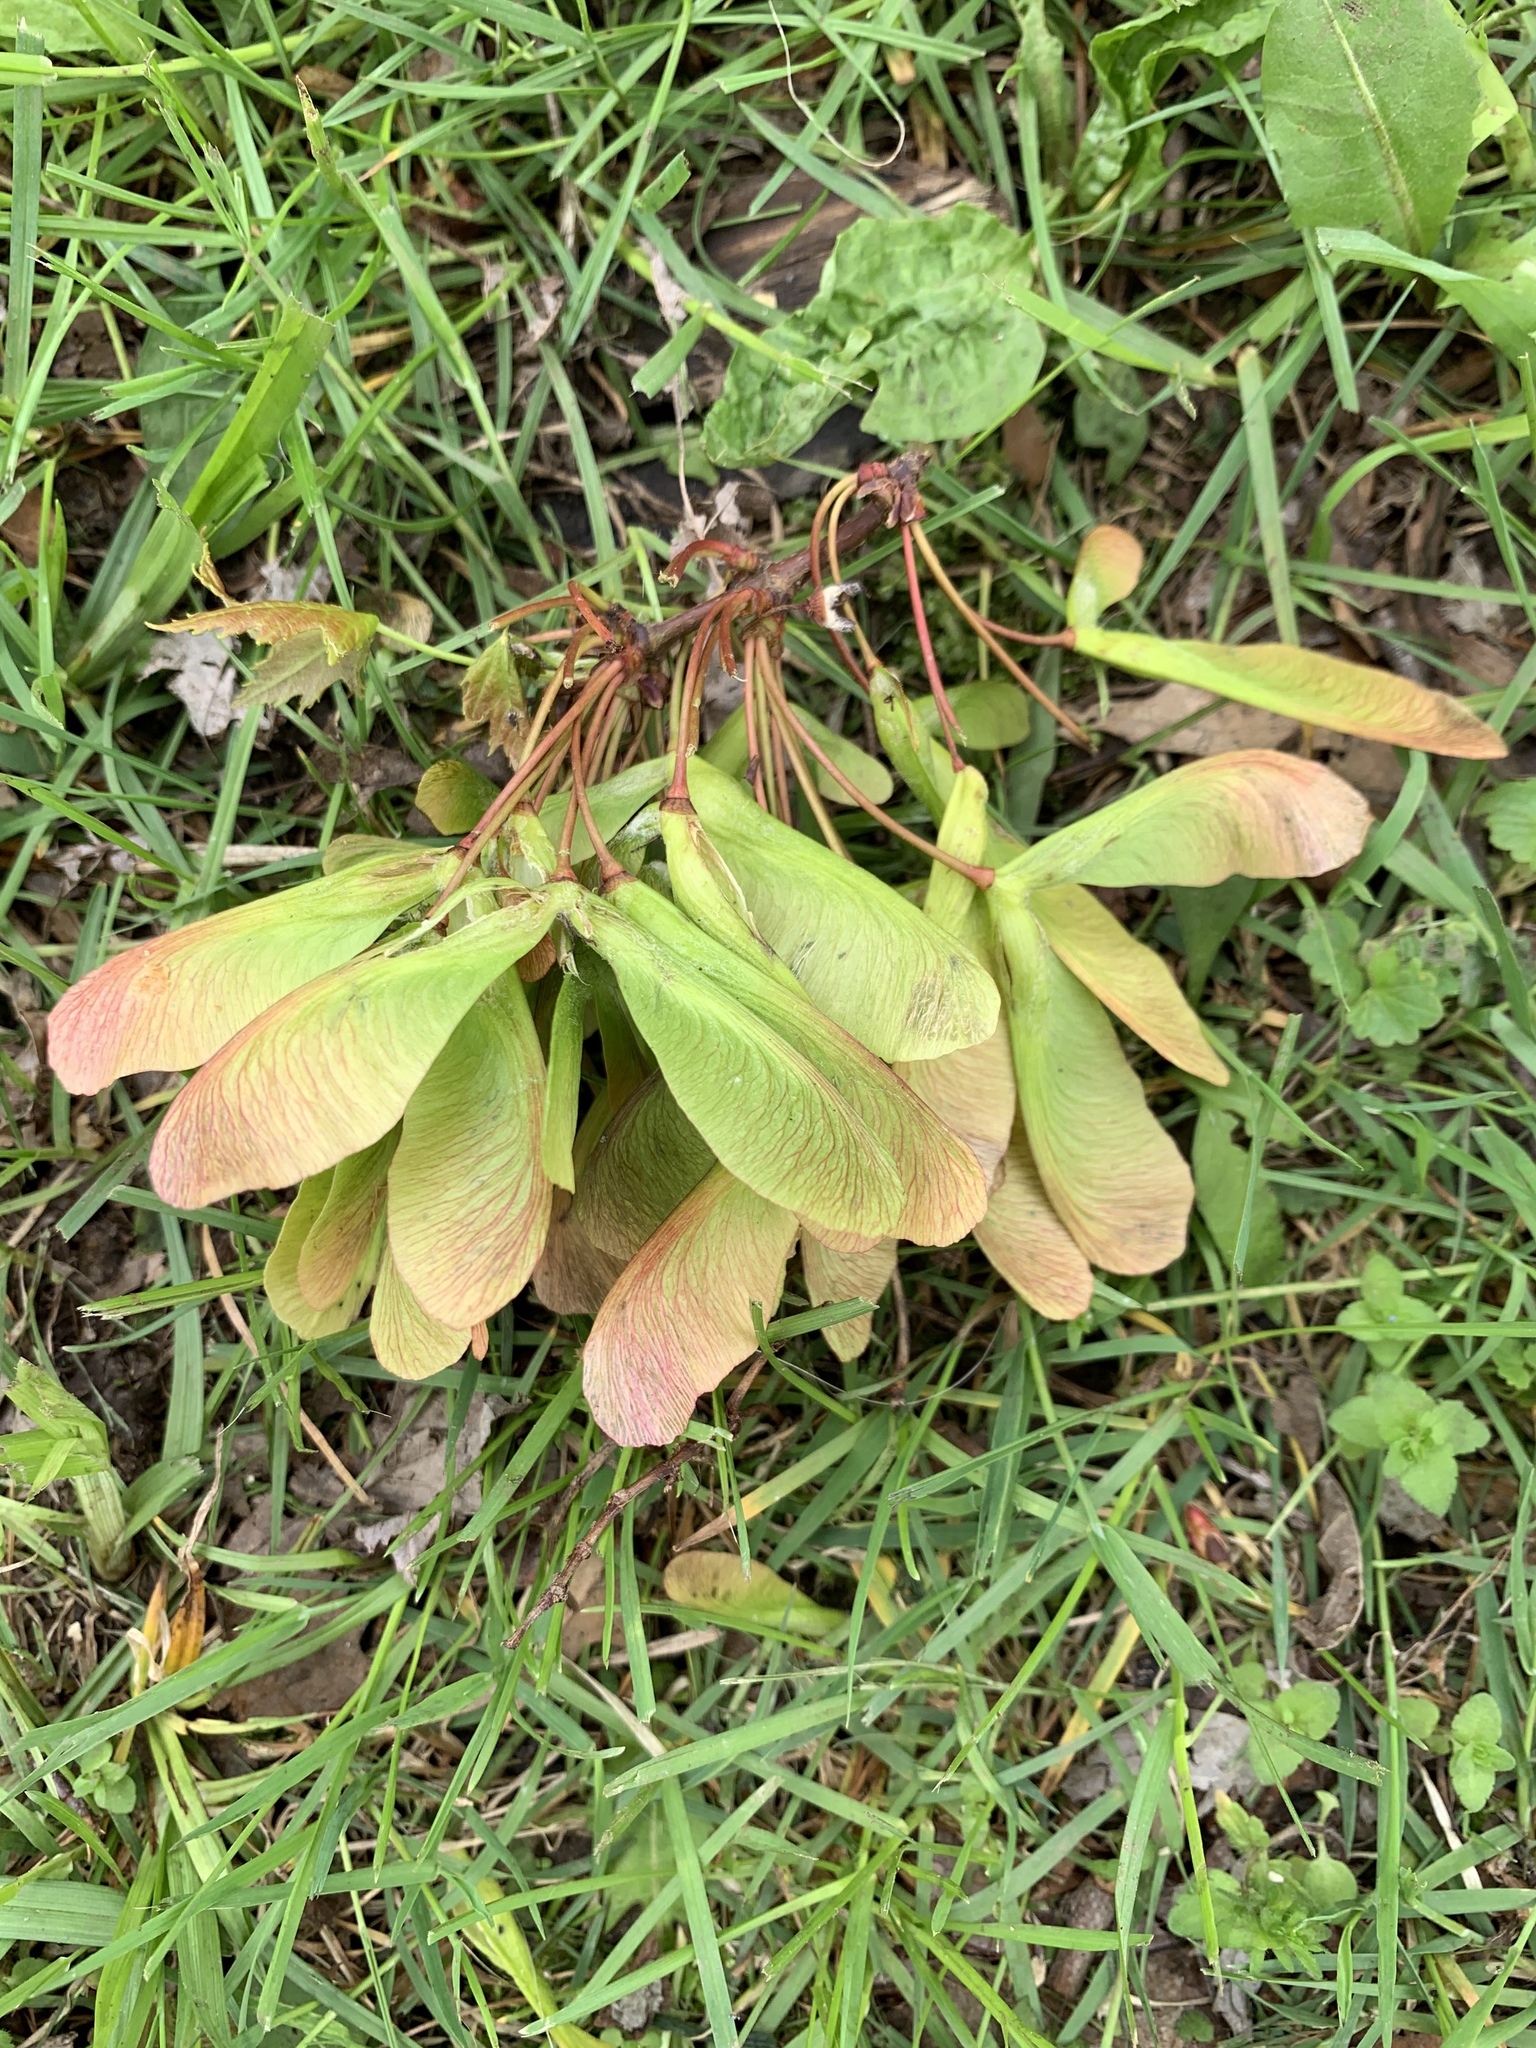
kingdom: Plantae
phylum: Tracheophyta
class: Magnoliopsida
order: Sapindales
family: Sapindaceae
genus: Acer
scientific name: Acer saccharinum
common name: Silver maple
